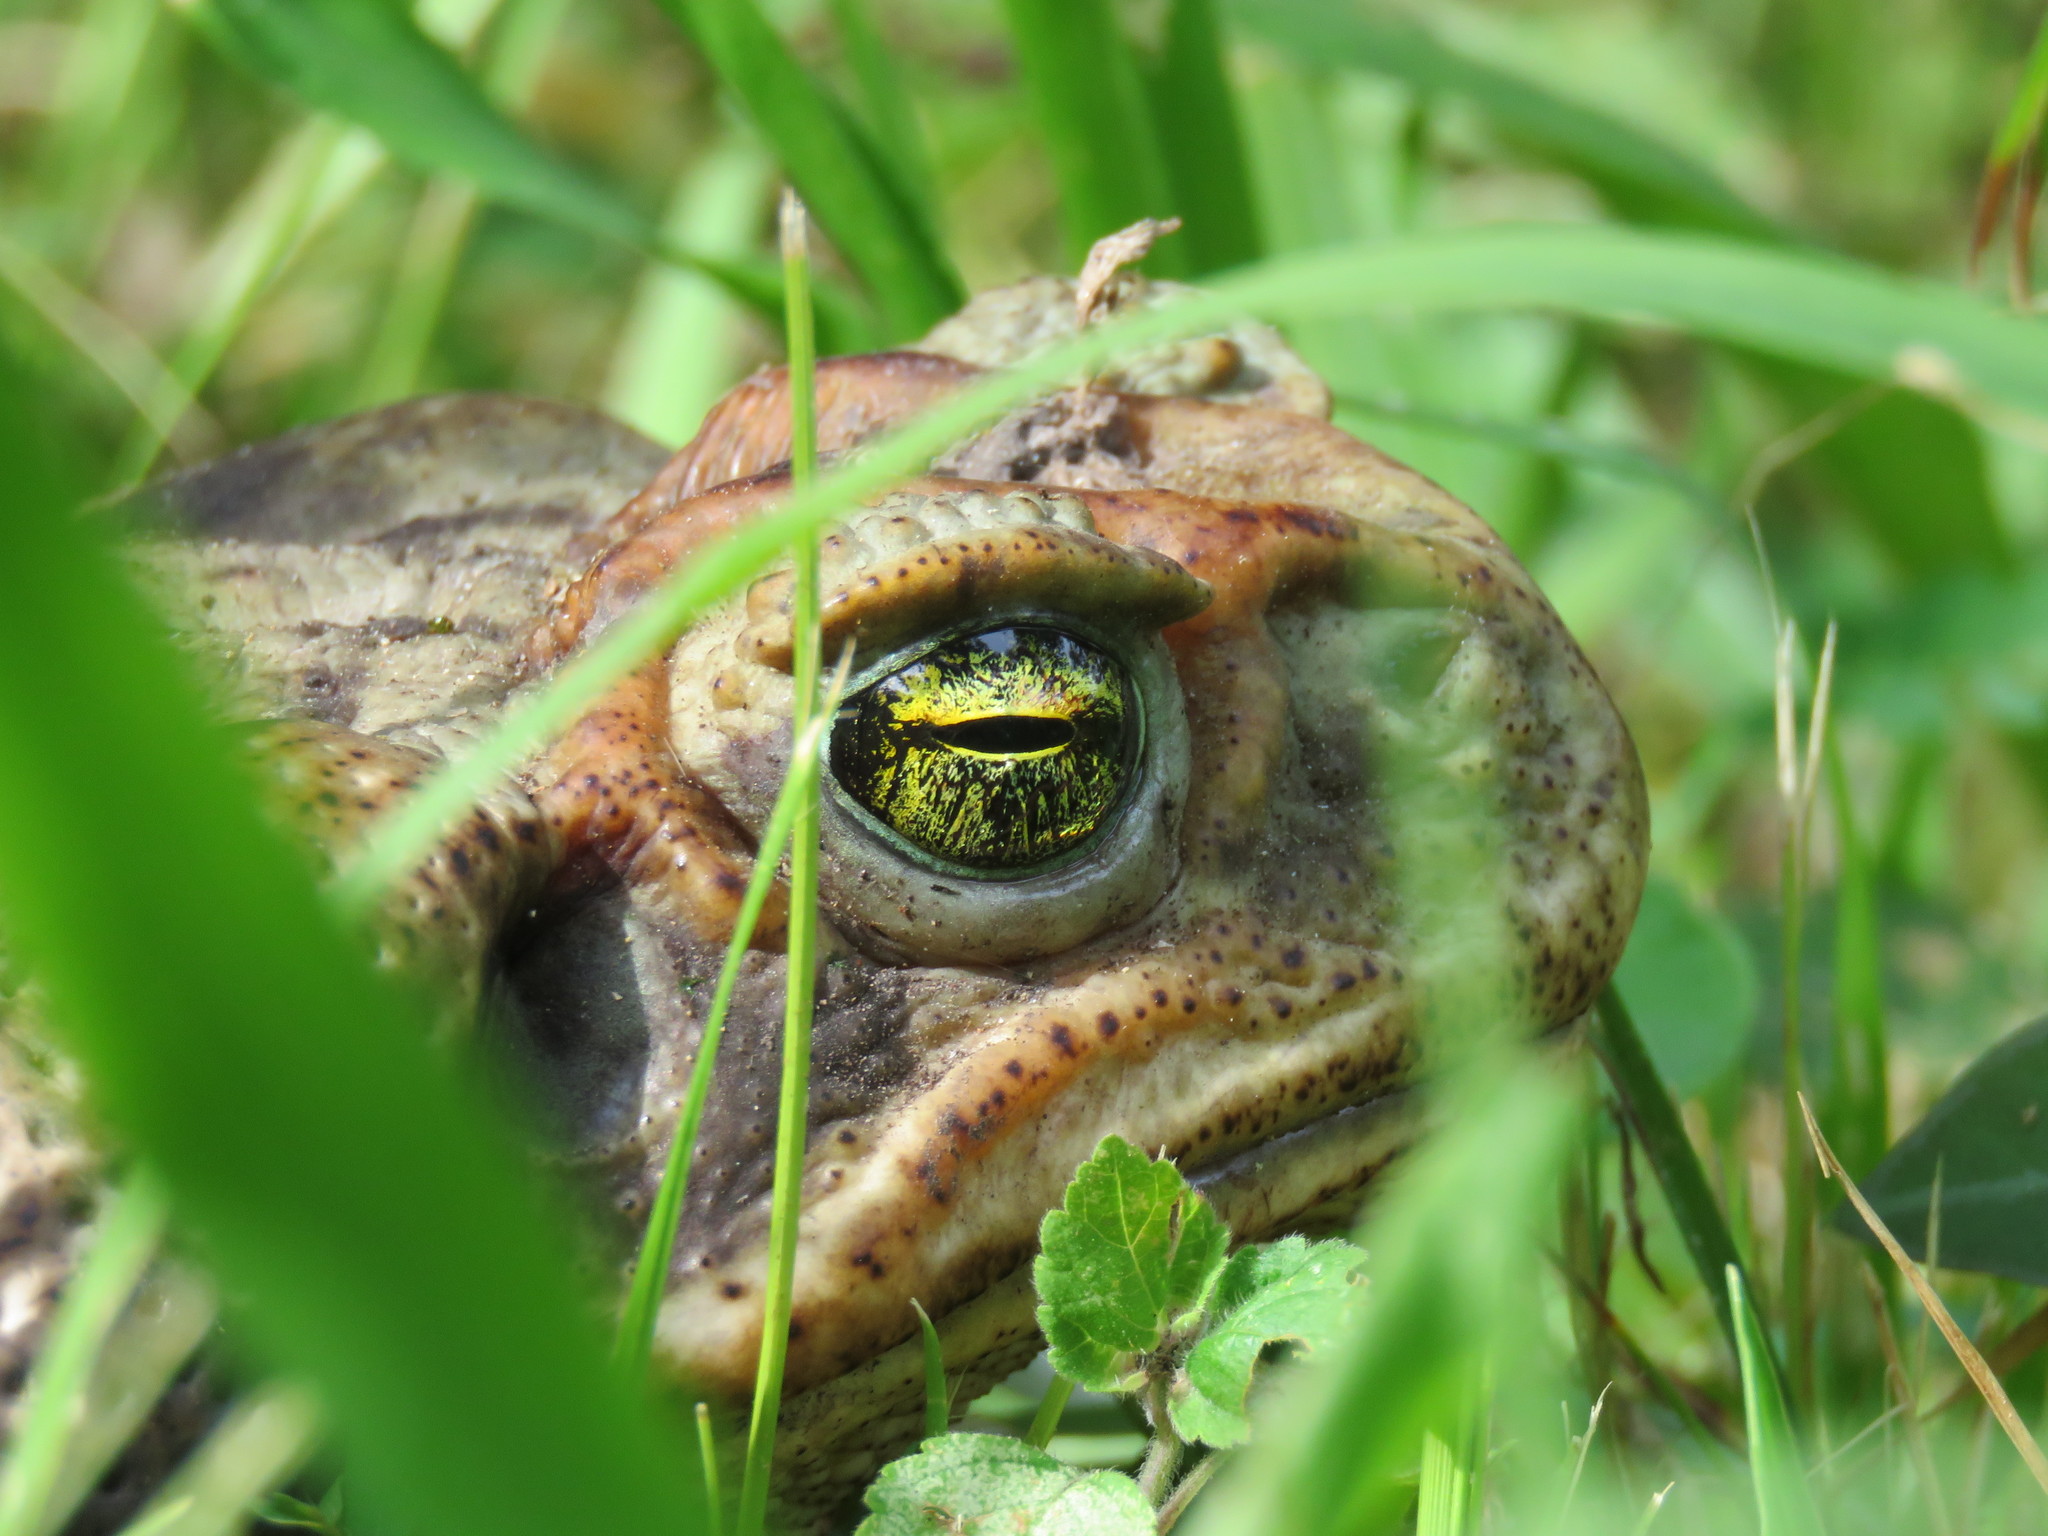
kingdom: Animalia
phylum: Chordata
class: Amphibia
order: Anura
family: Bufonidae
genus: Rhinella
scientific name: Rhinella diptycha
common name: Cope's toad
